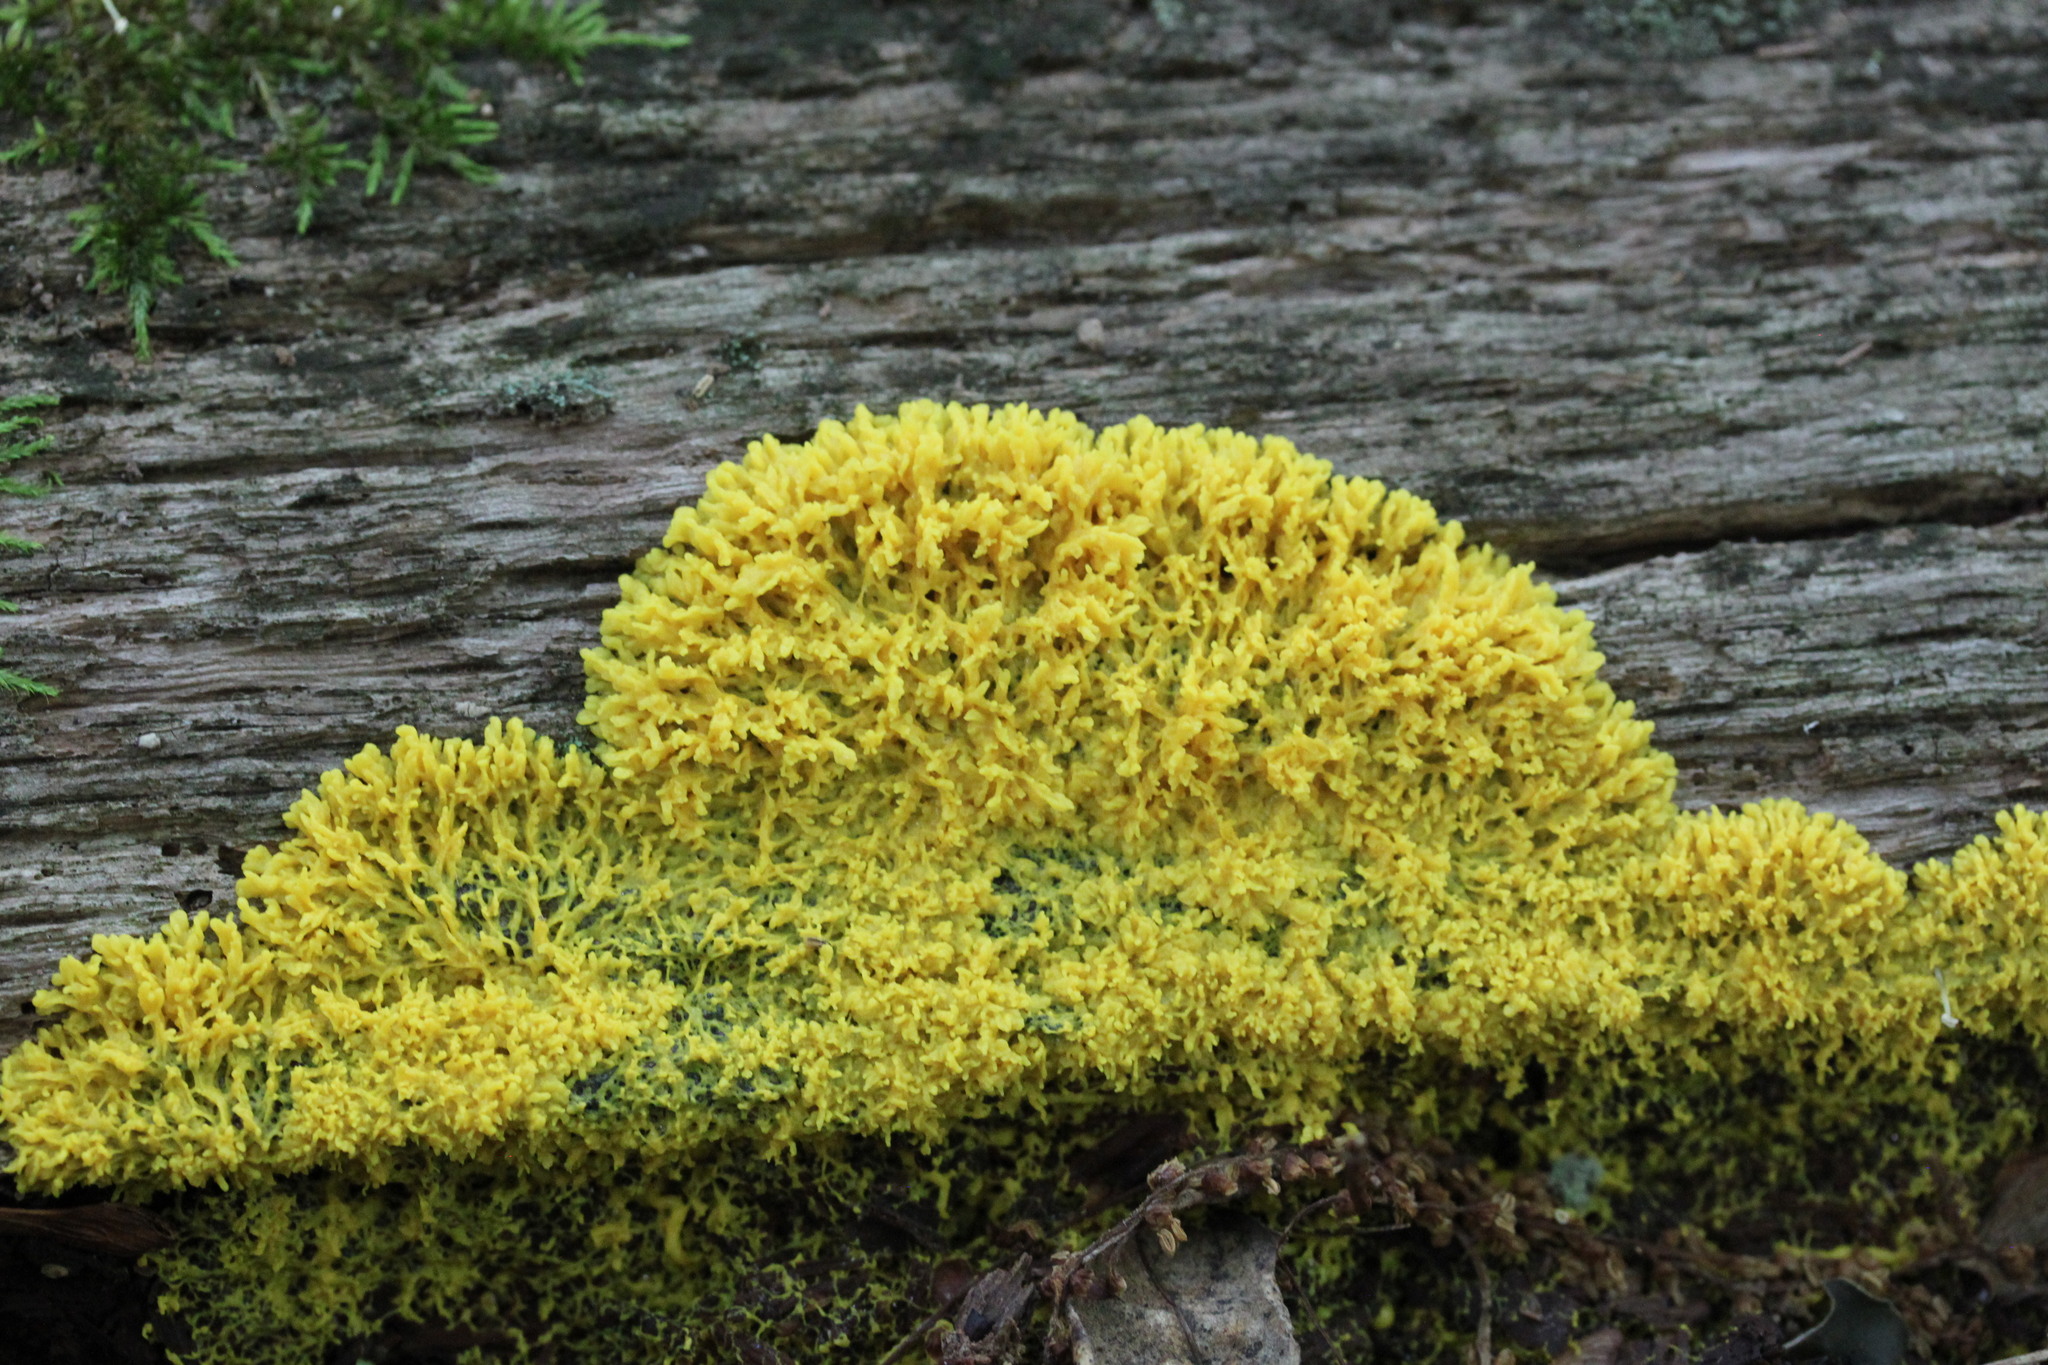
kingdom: Protozoa
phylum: Mycetozoa
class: Myxomycetes
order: Physarales
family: Physaraceae
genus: Fuligo
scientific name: Fuligo septica
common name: Dog vomit slime mold
